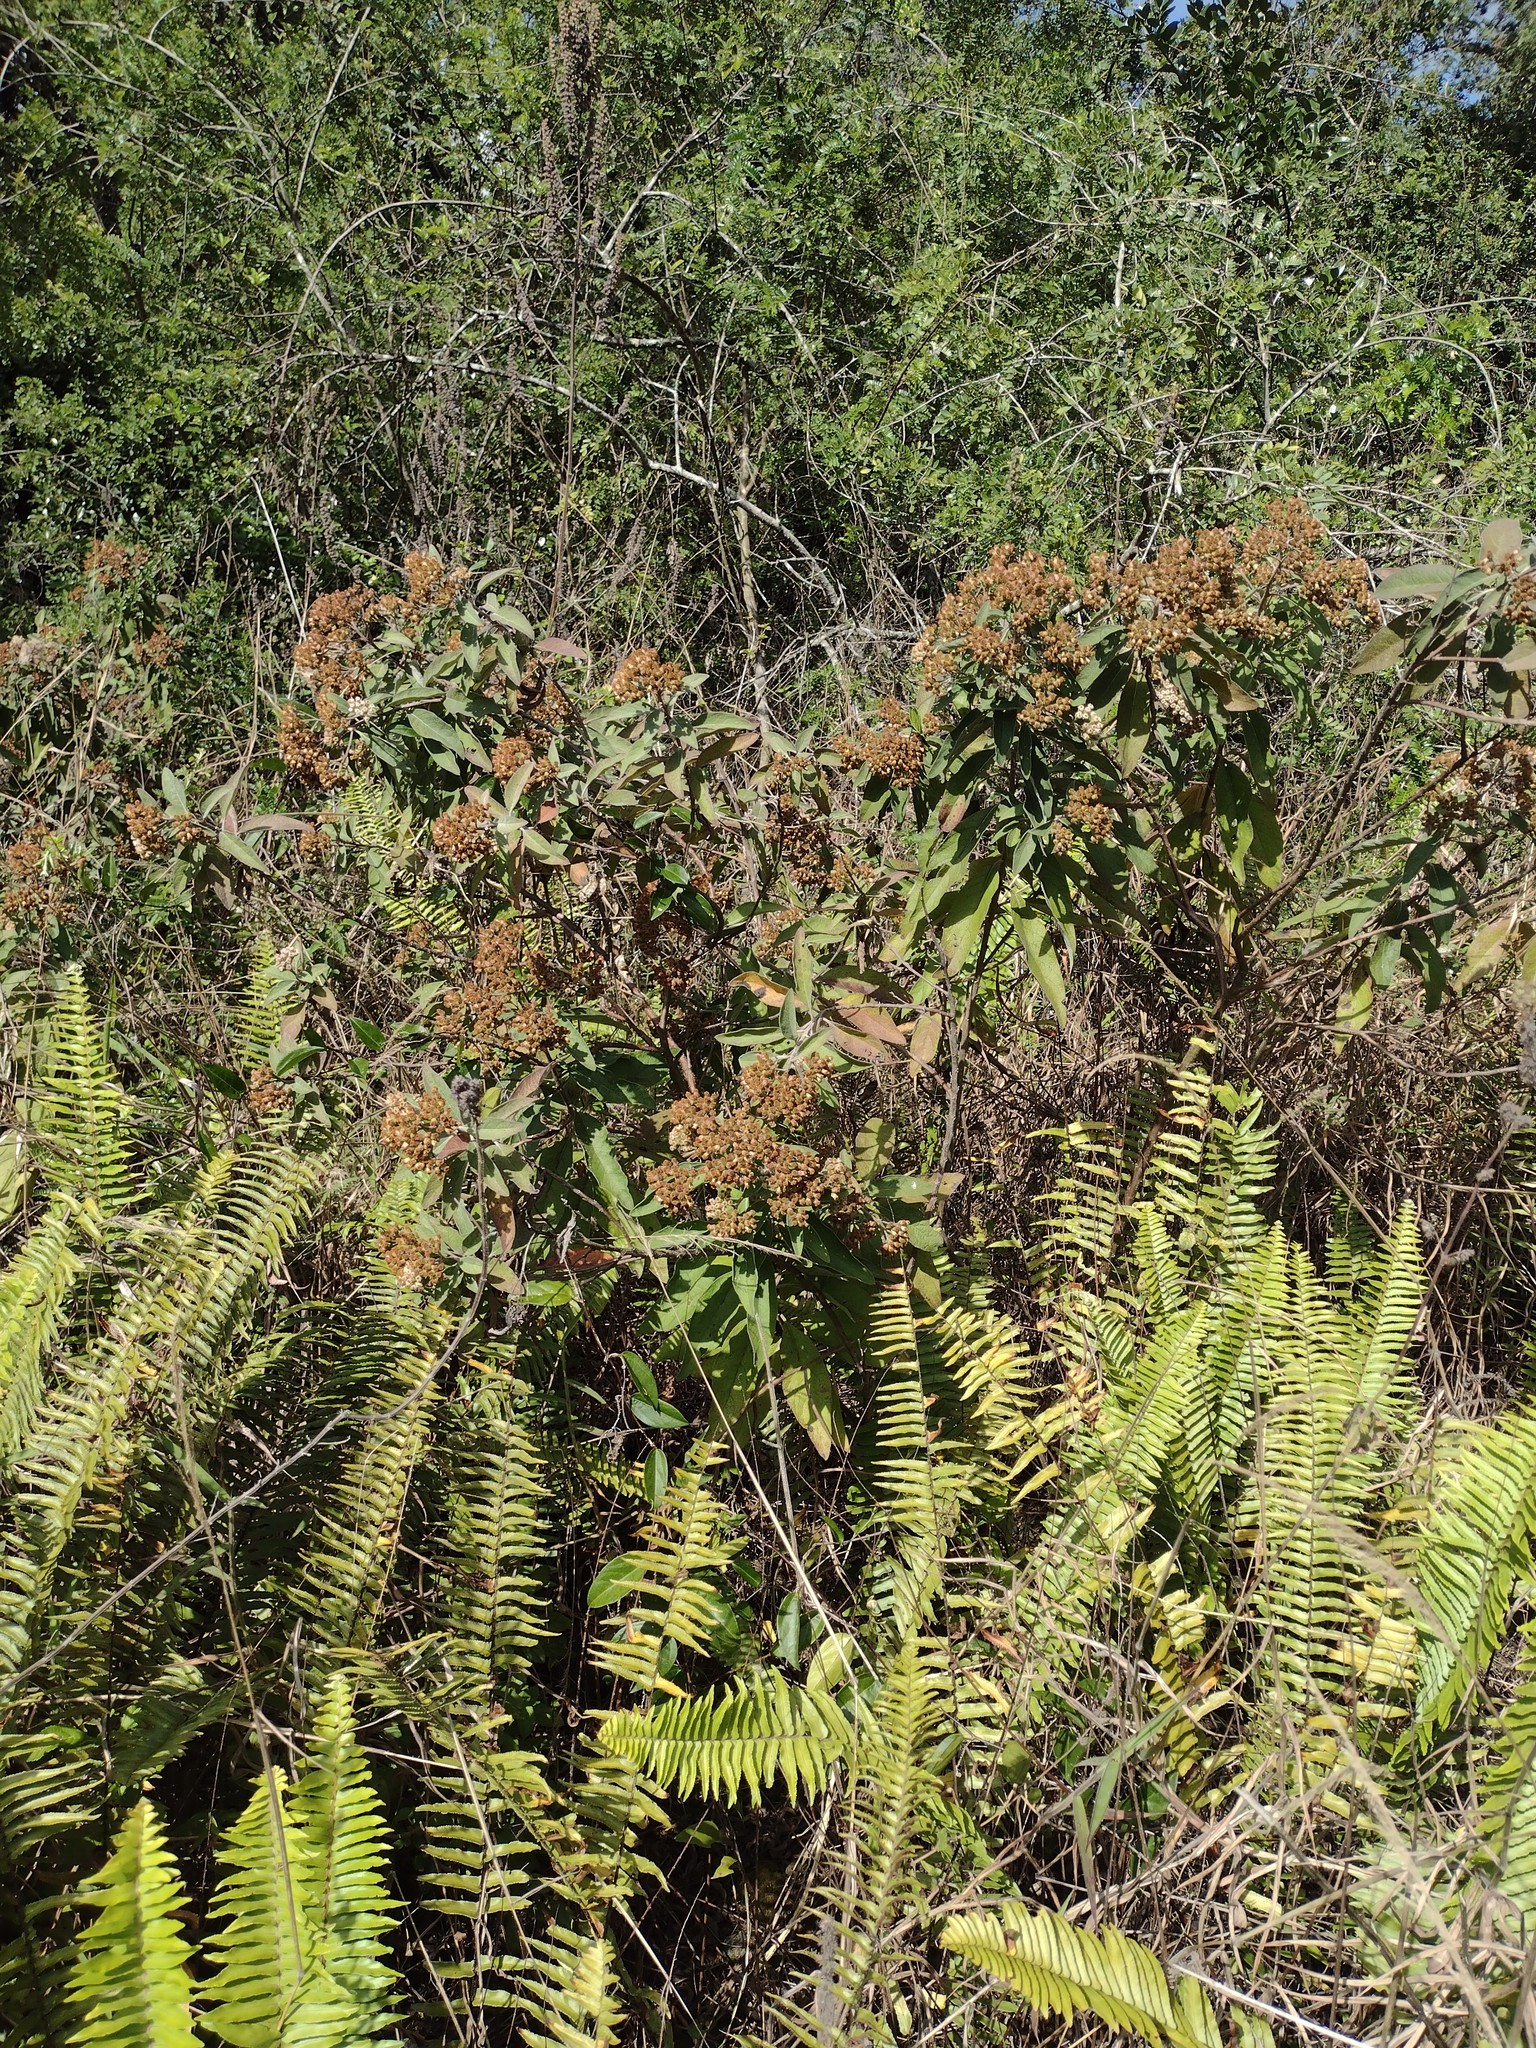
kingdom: Plantae
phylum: Tracheophyta
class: Magnoliopsida
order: Asterales
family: Asteraceae
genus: Pluchea
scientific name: Pluchea carolinensis
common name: Marsh fleabane
